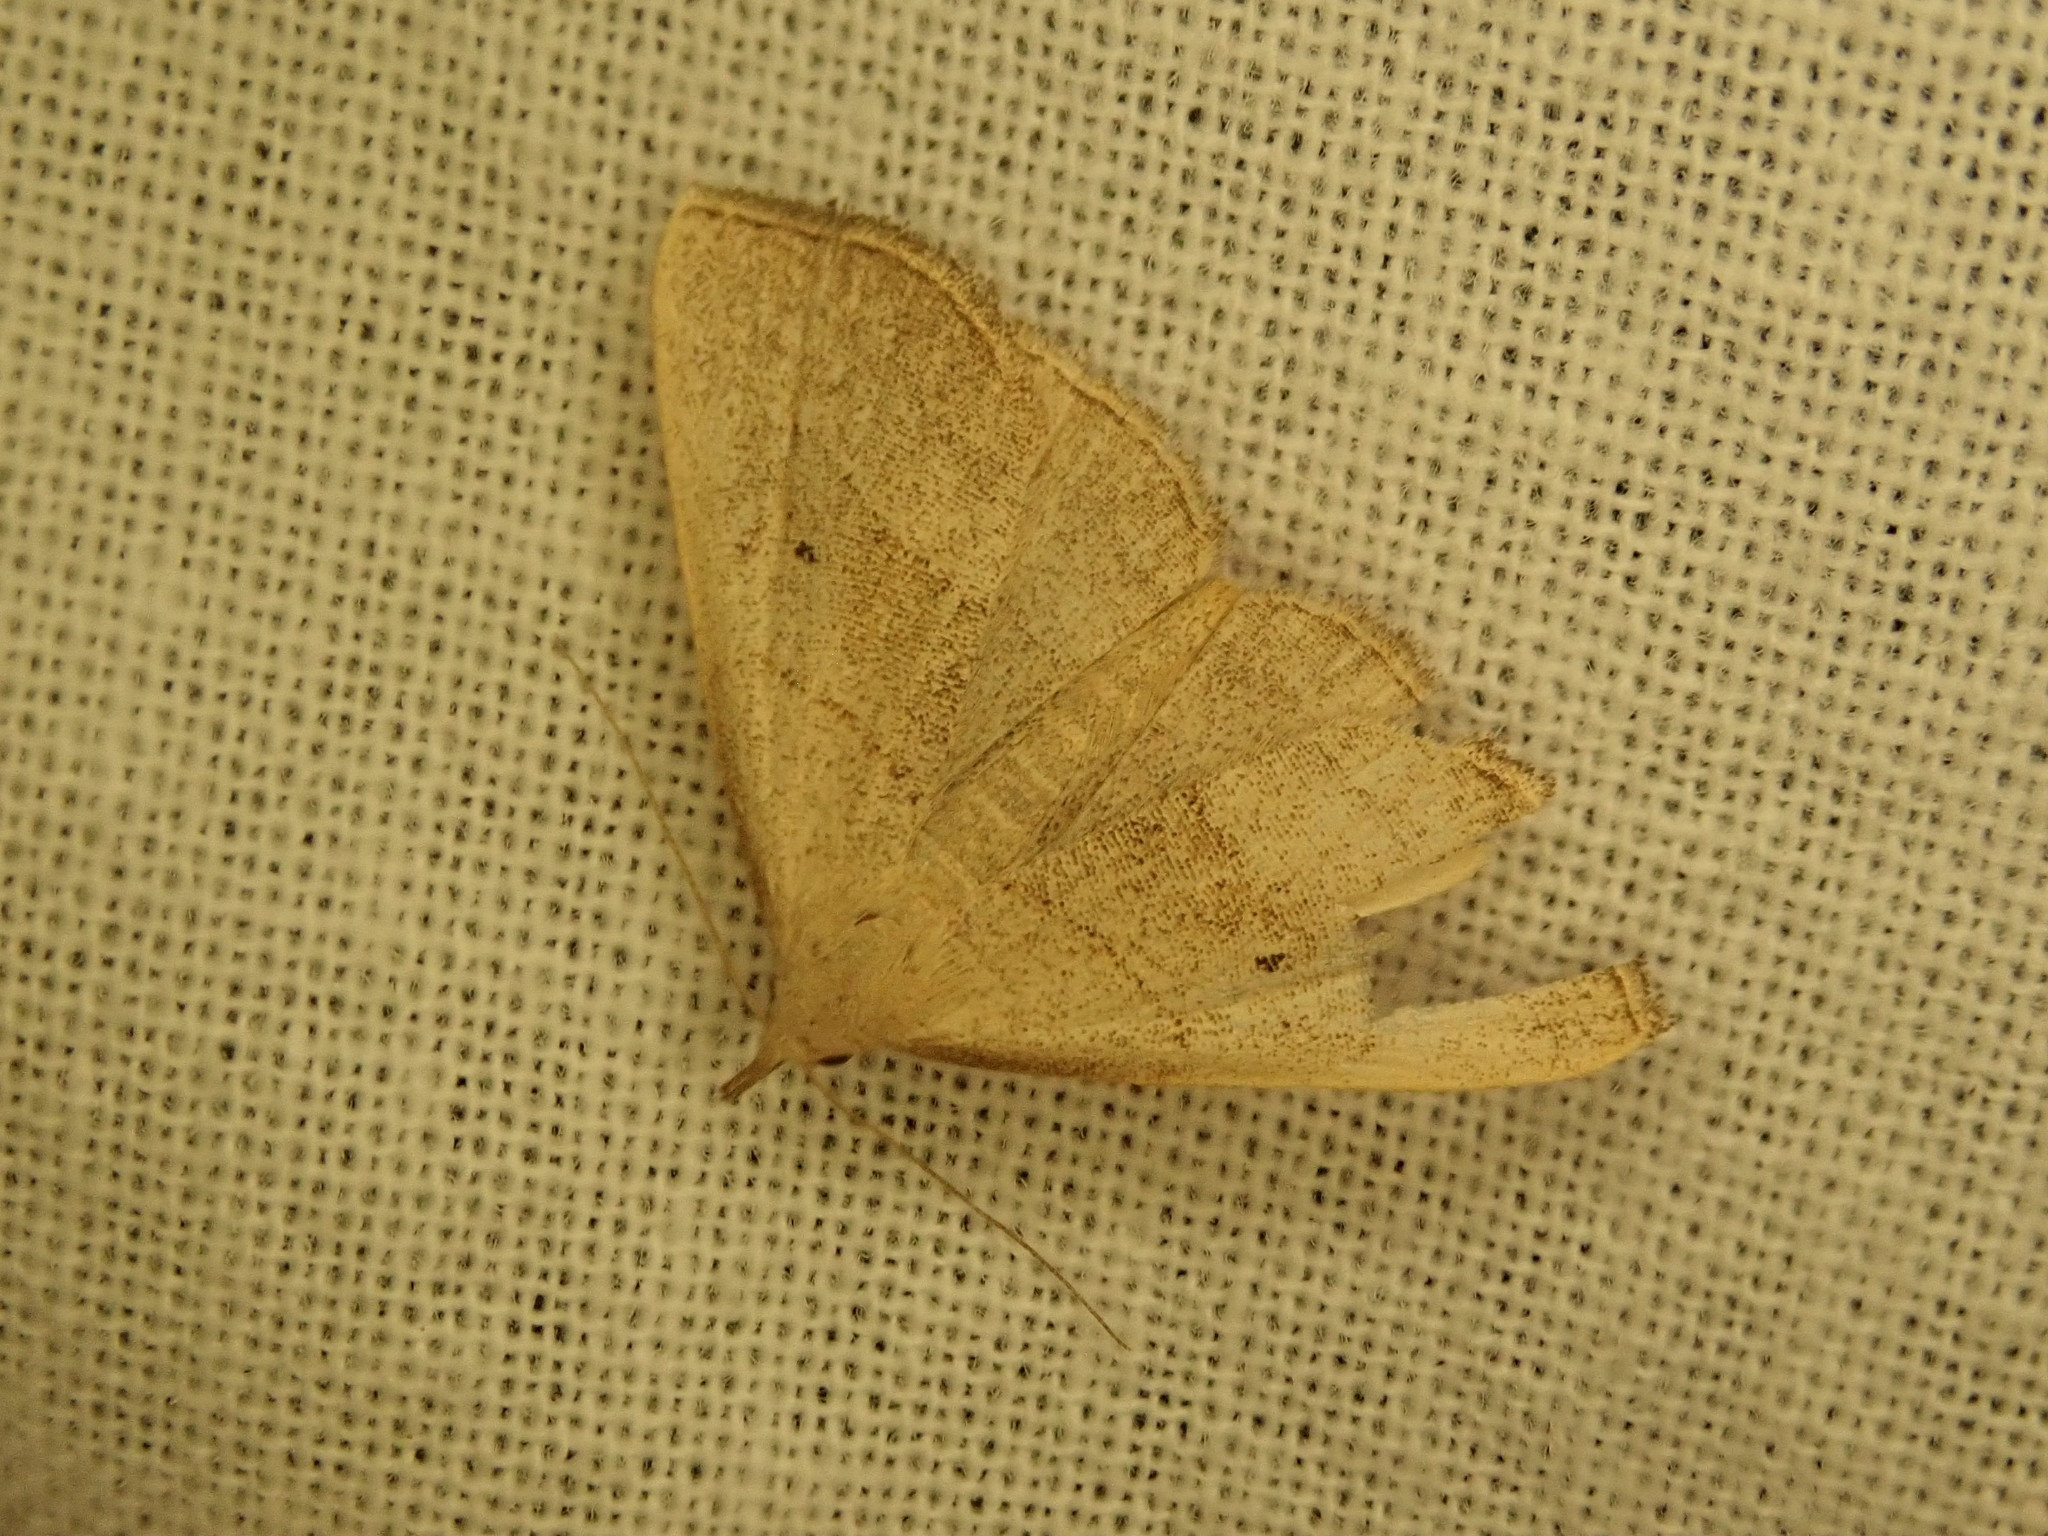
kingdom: Animalia
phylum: Arthropoda
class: Insecta
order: Lepidoptera
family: Erebidae
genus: Macrochilo
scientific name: Macrochilo litophora
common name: Brown-lined owlet
